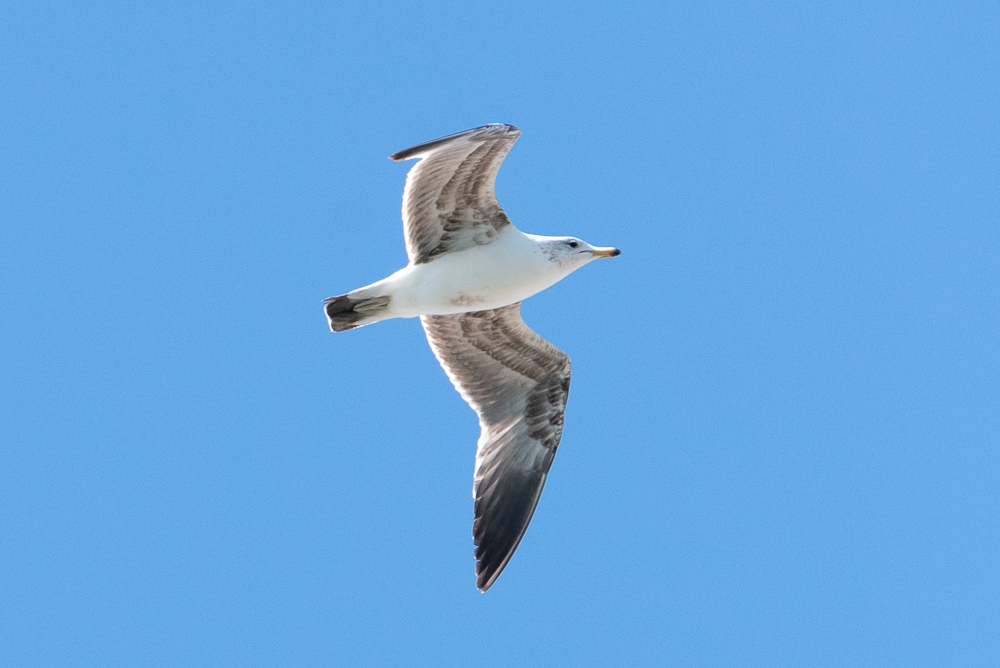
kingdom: Animalia
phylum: Chordata
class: Aves
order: Charadriiformes
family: Laridae
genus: Larus
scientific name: Larus californicus
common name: California gull
